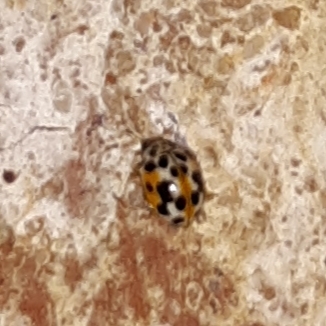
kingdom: Animalia
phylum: Arthropoda
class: Insecta
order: Coleoptera
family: Coccinellidae
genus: Psyllobora
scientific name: Psyllobora vigintimaculata
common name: Ladybird beetle
